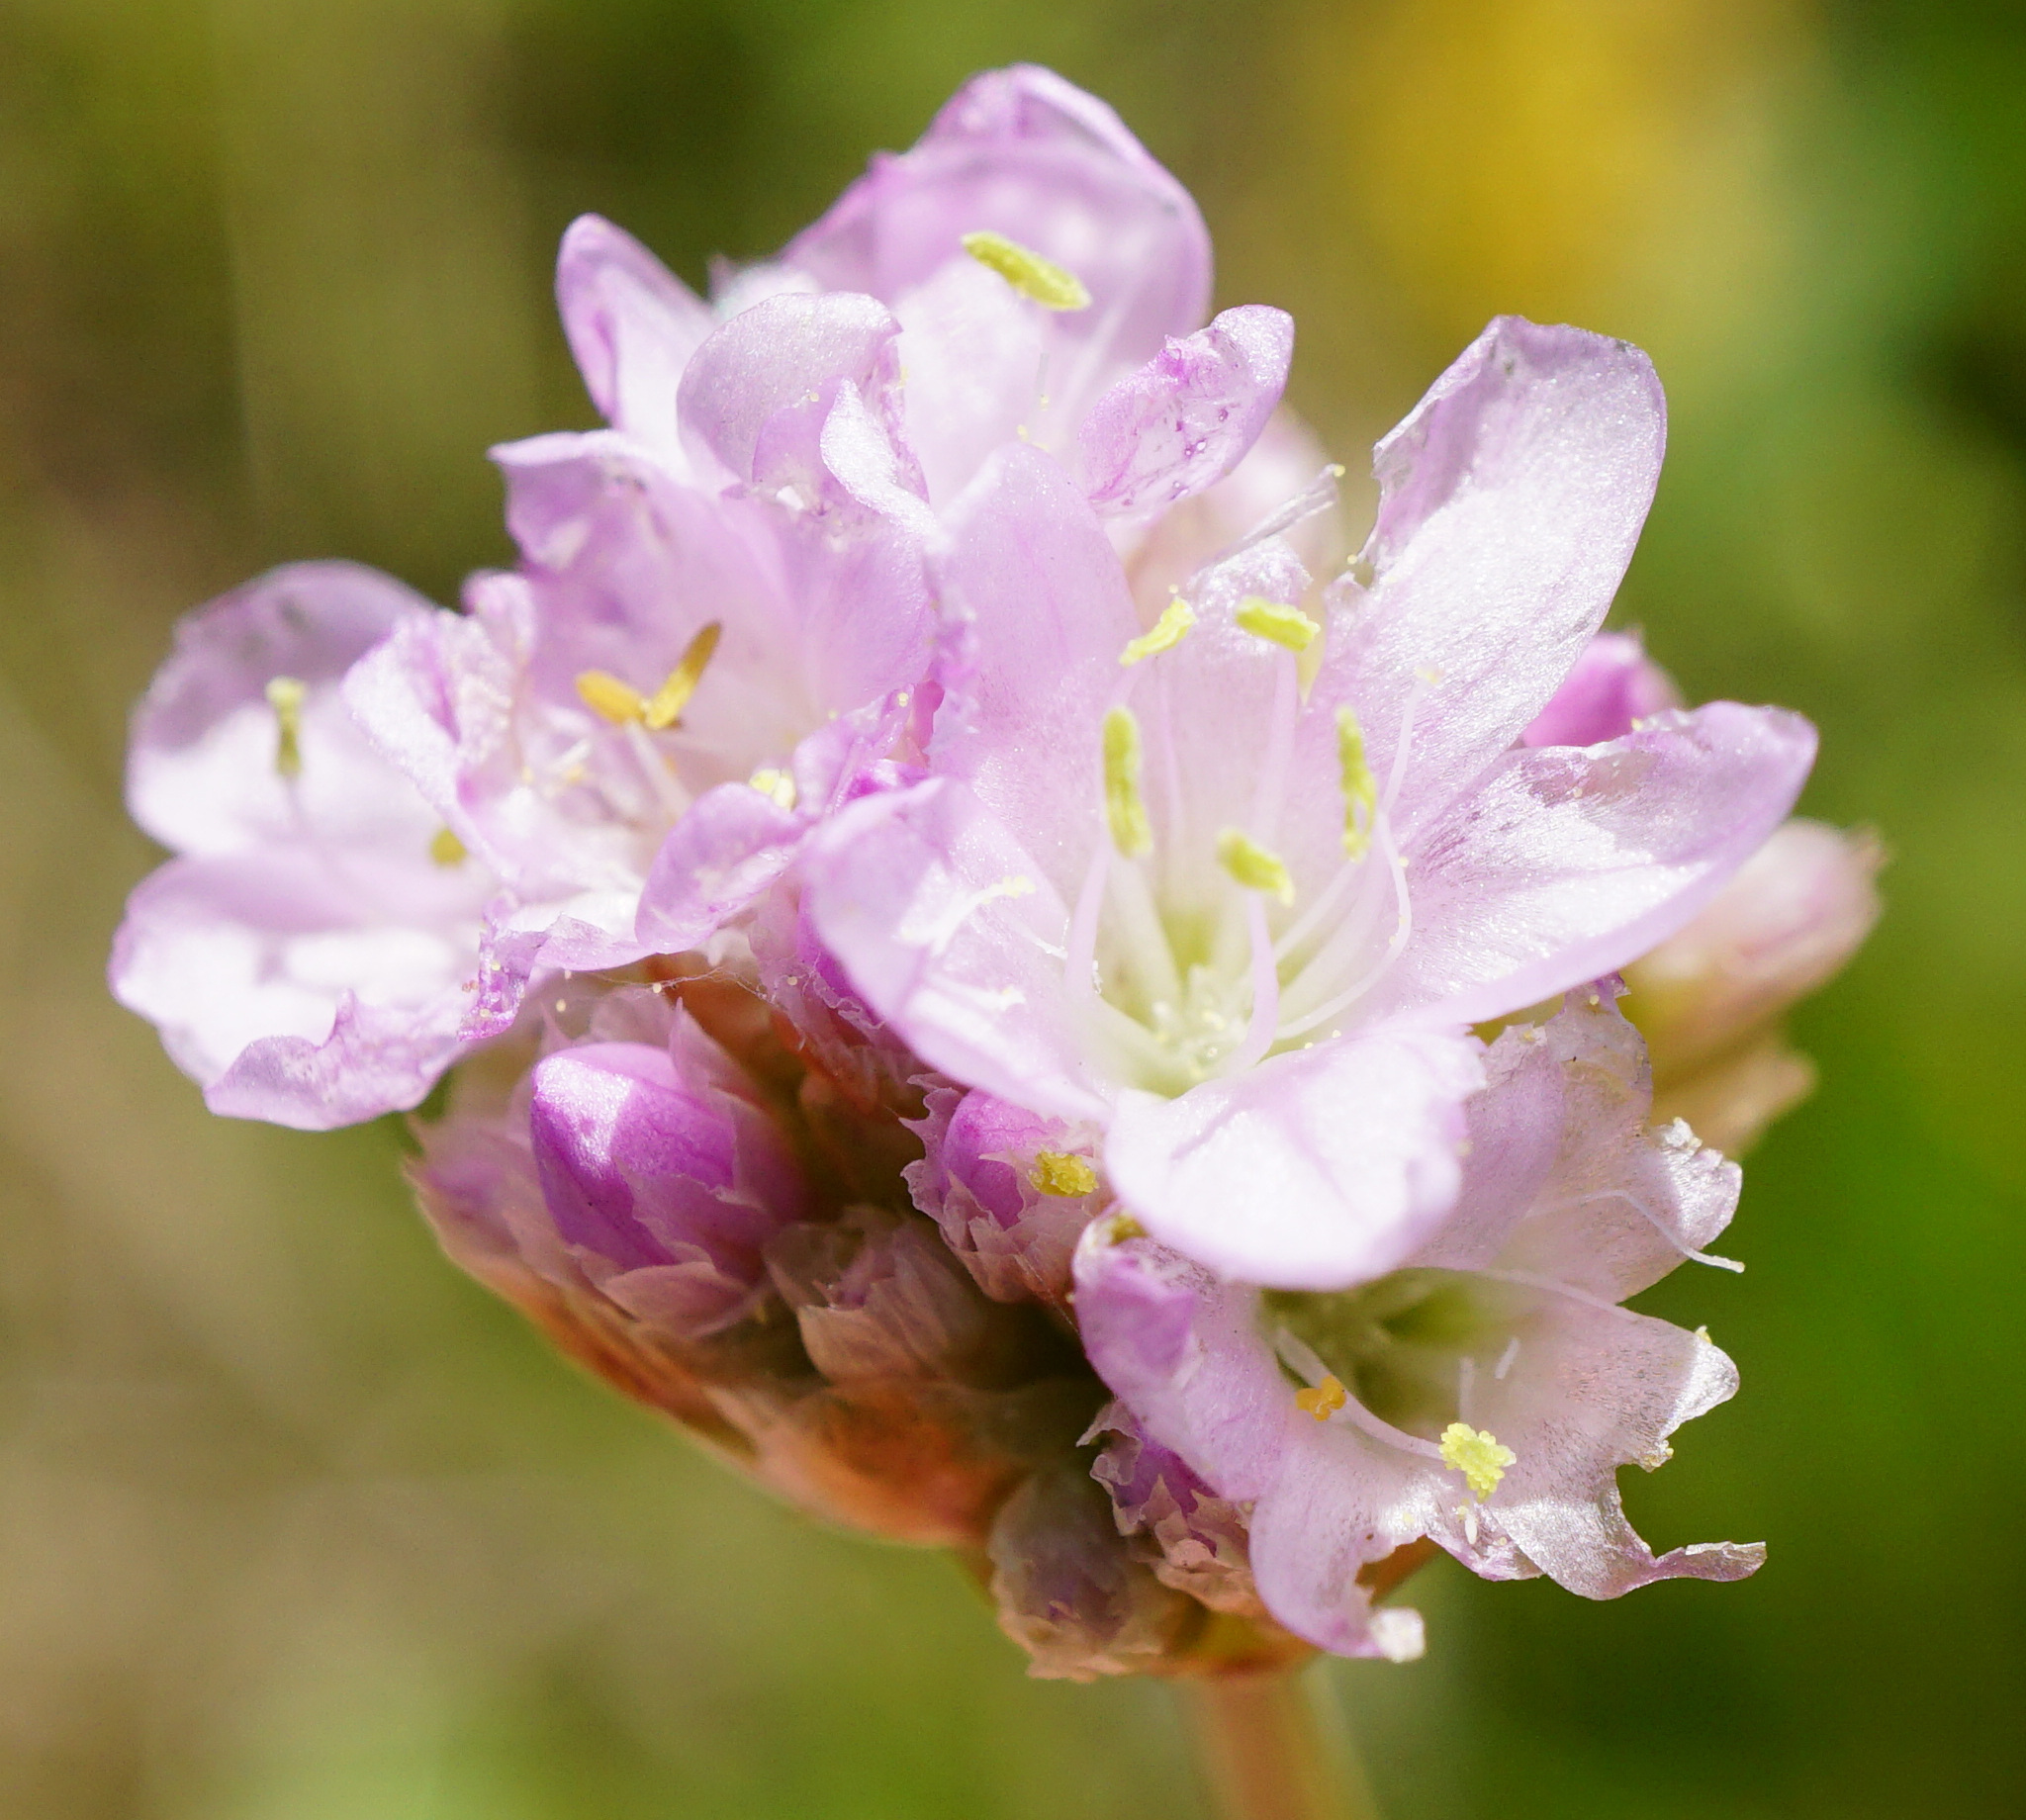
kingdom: Plantae
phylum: Tracheophyta
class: Magnoliopsida
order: Caryophyllales
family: Plumbaginaceae
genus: Armeria
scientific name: Armeria maritima
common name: Thrift
